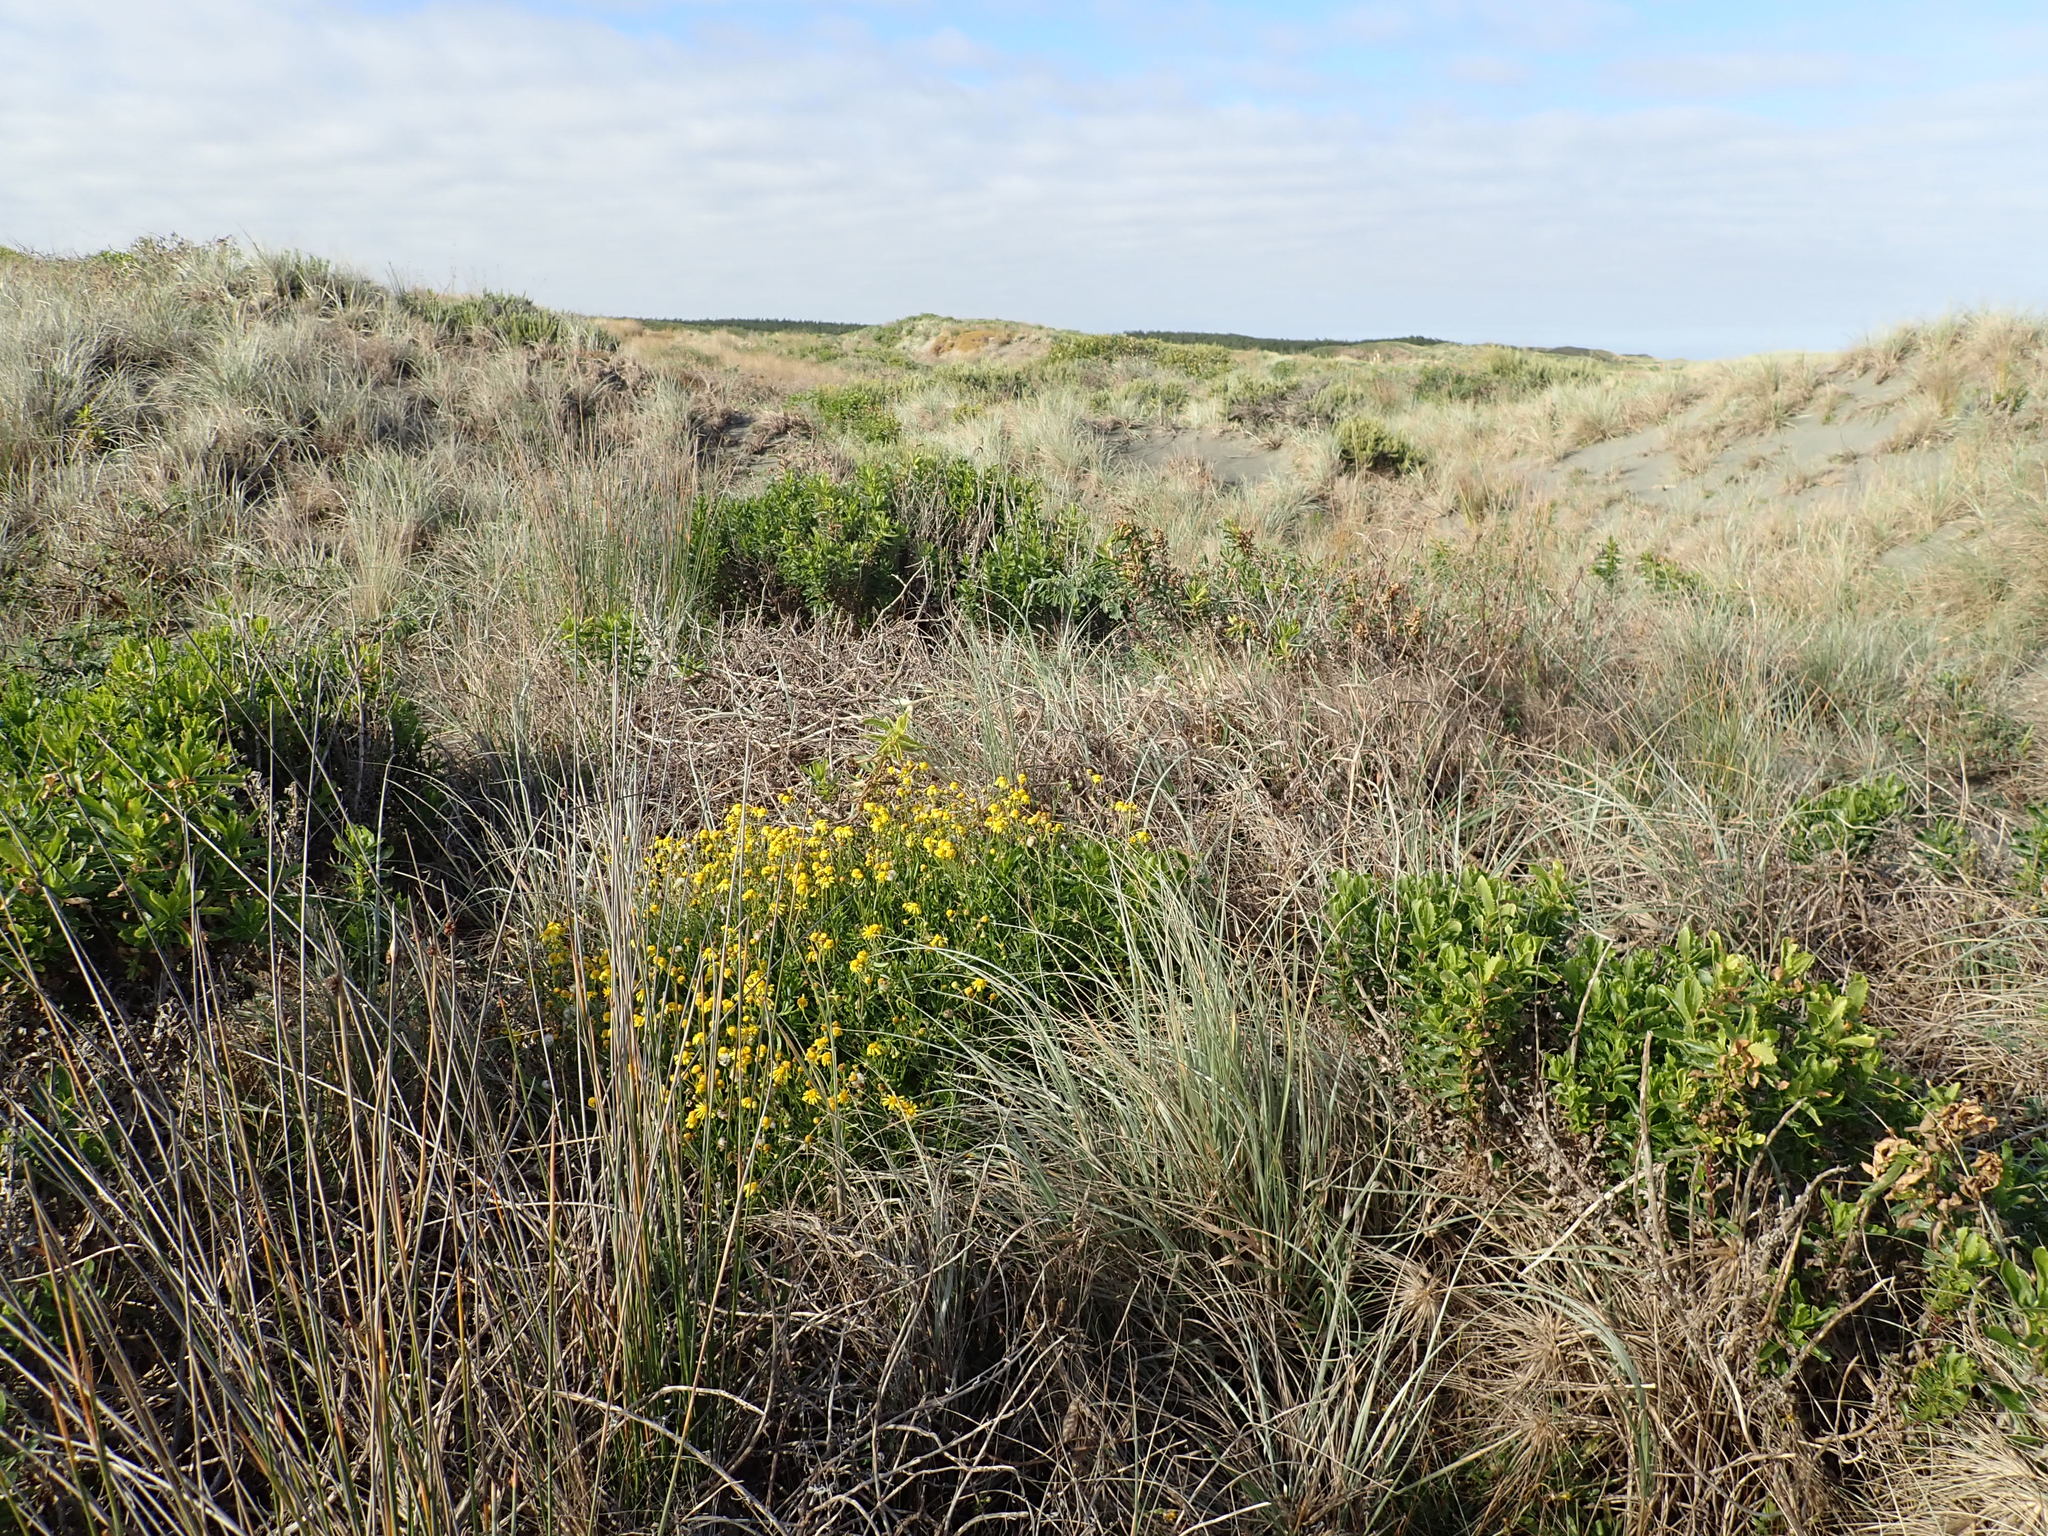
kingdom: Plantae
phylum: Tracheophyta
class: Magnoliopsida
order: Asterales
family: Asteraceae
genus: Senecio
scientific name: Senecio skirrhodon
